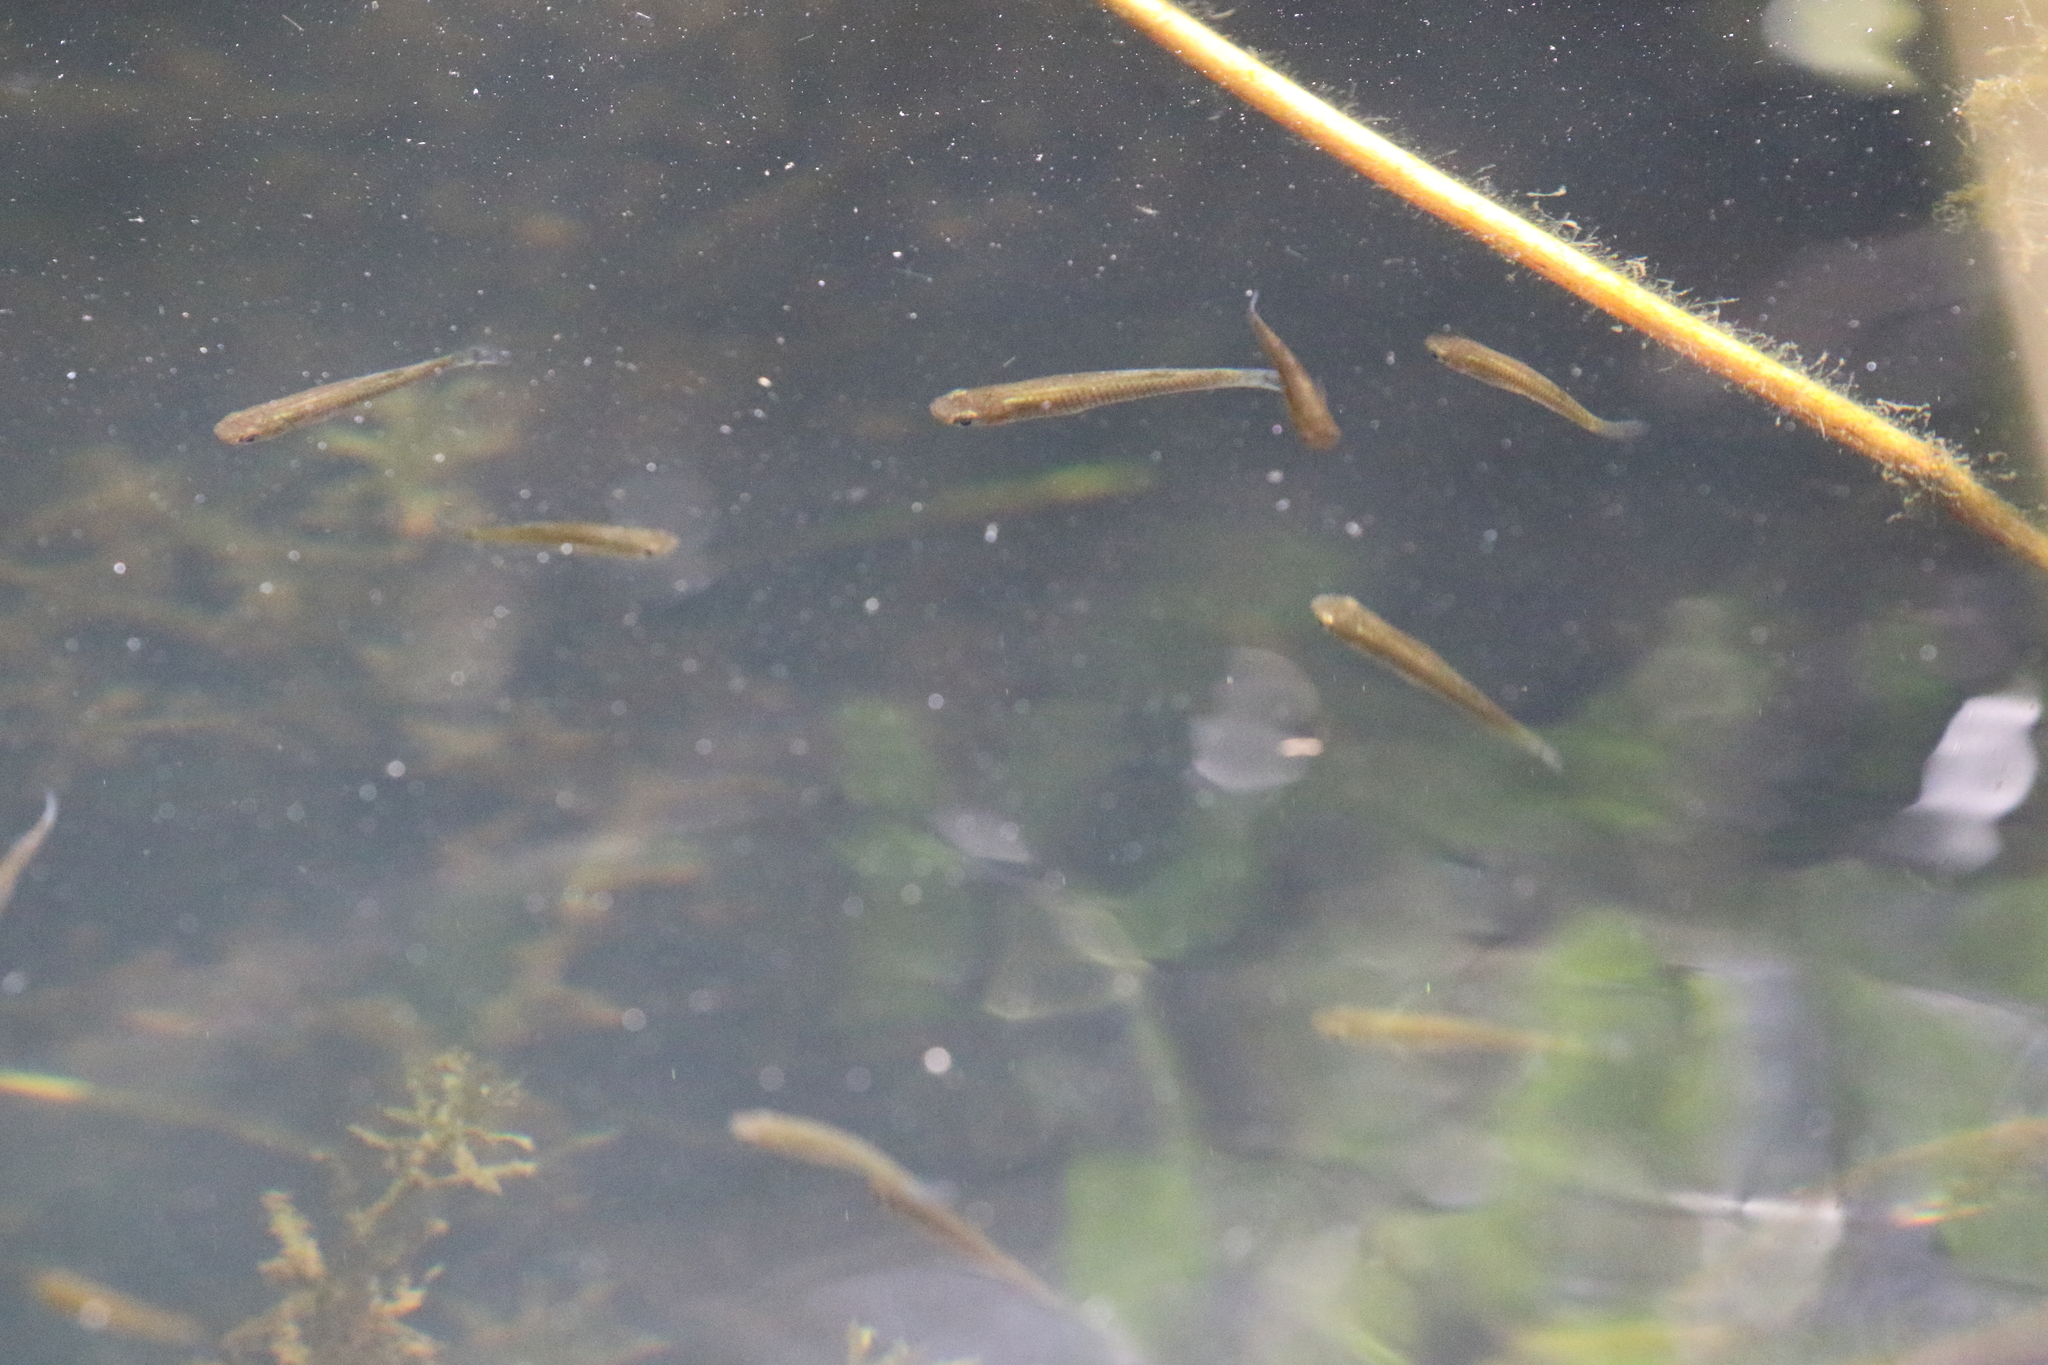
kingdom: Animalia
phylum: Chordata
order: Cyprinodontiformes
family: Poeciliidae
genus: Gambusia
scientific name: Gambusia holbrooki
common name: Eastern mosquitofish
